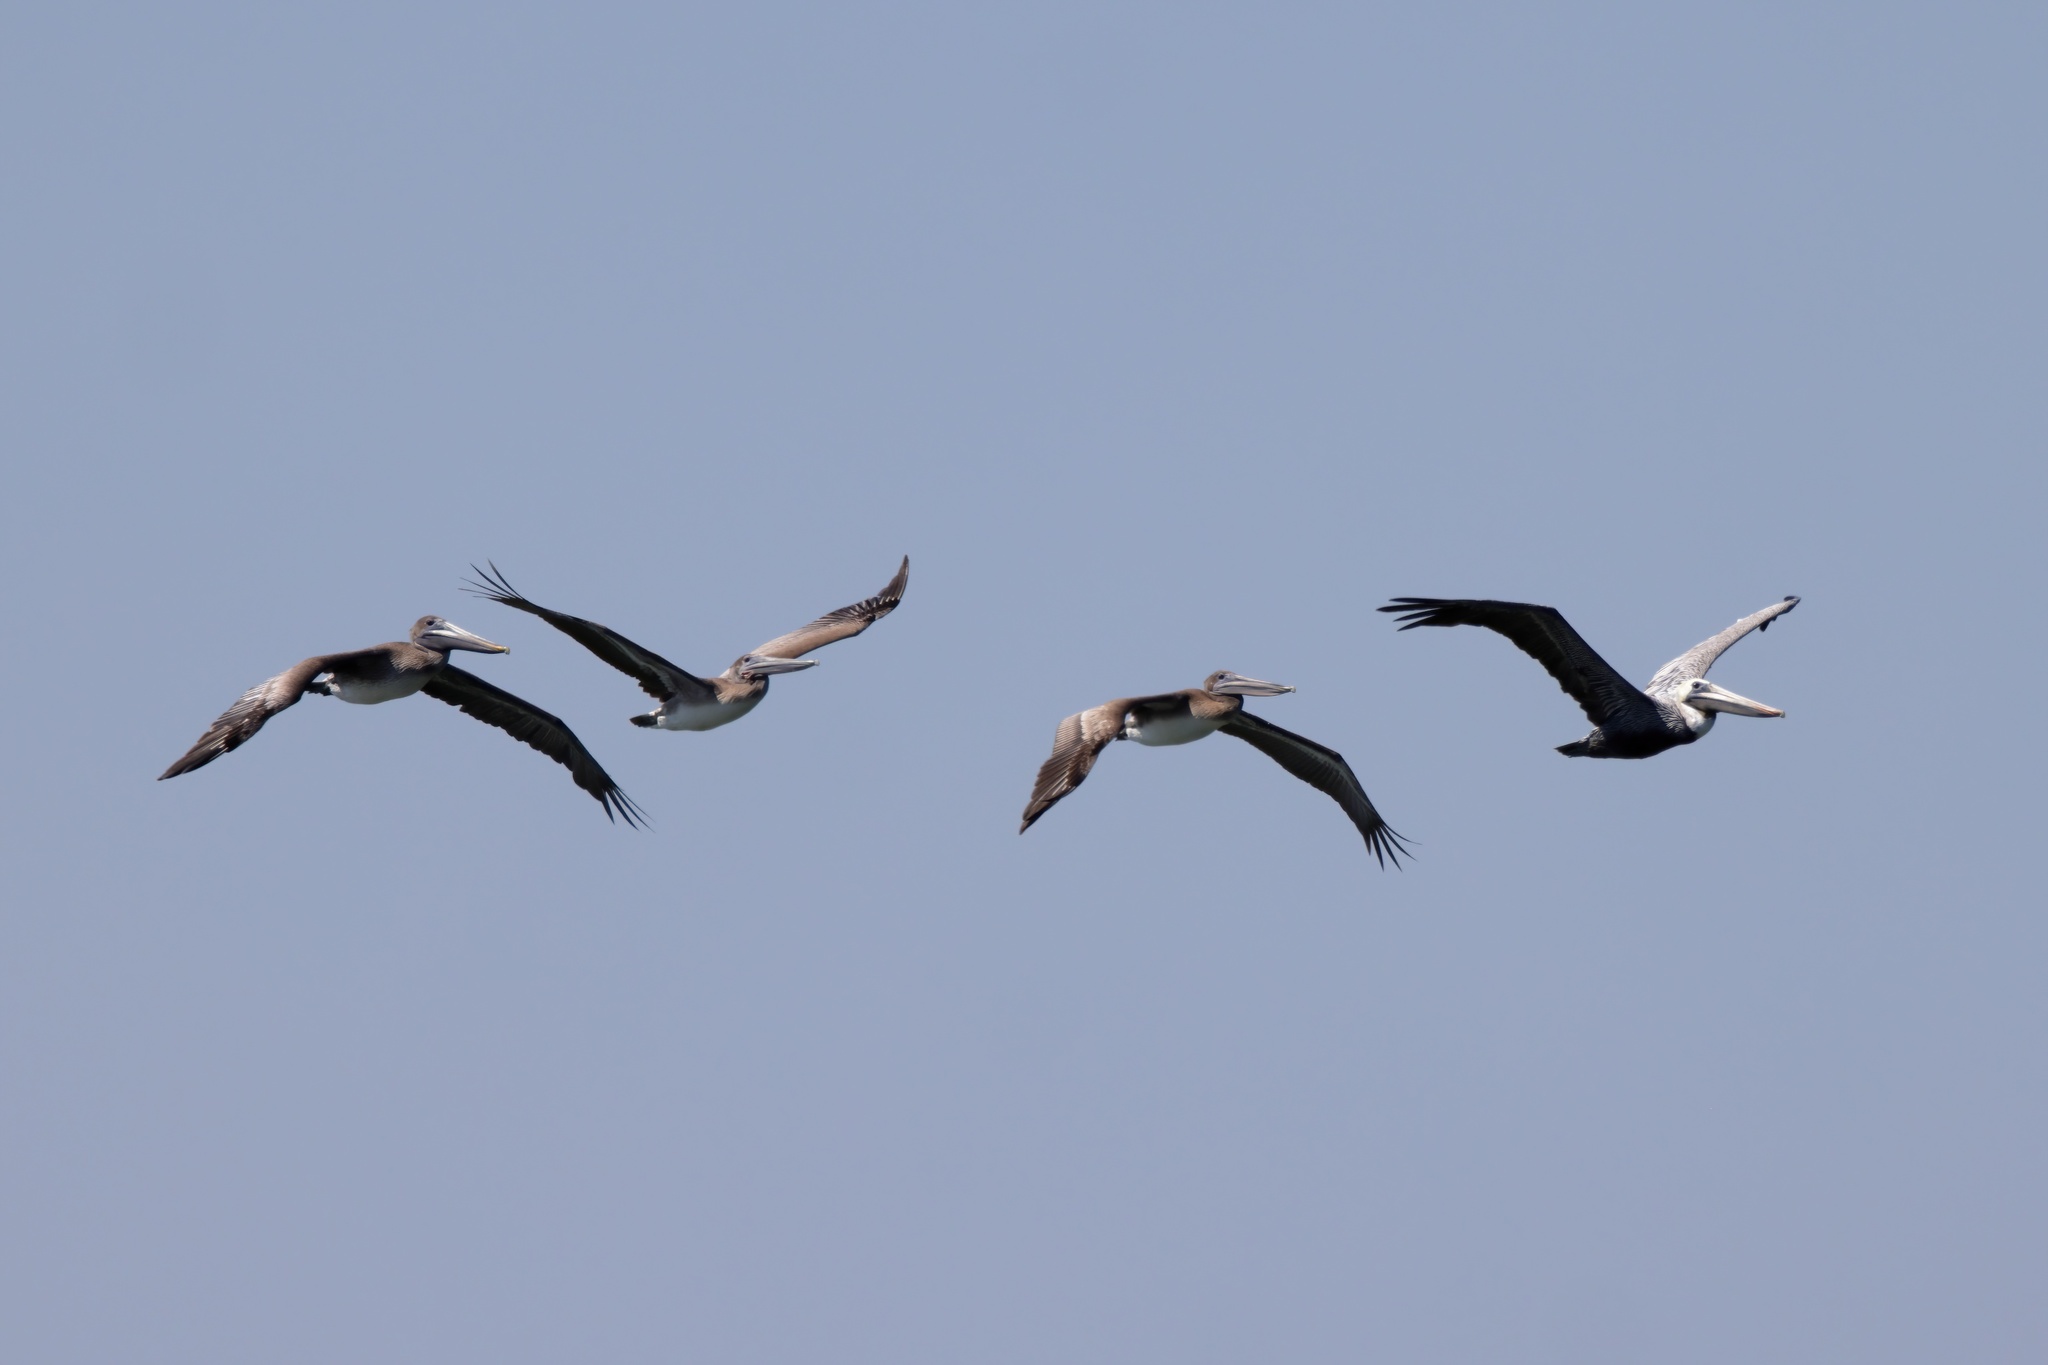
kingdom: Animalia
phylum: Chordata
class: Aves
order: Pelecaniformes
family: Pelecanidae
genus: Pelecanus
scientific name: Pelecanus occidentalis
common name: Brown pelican
